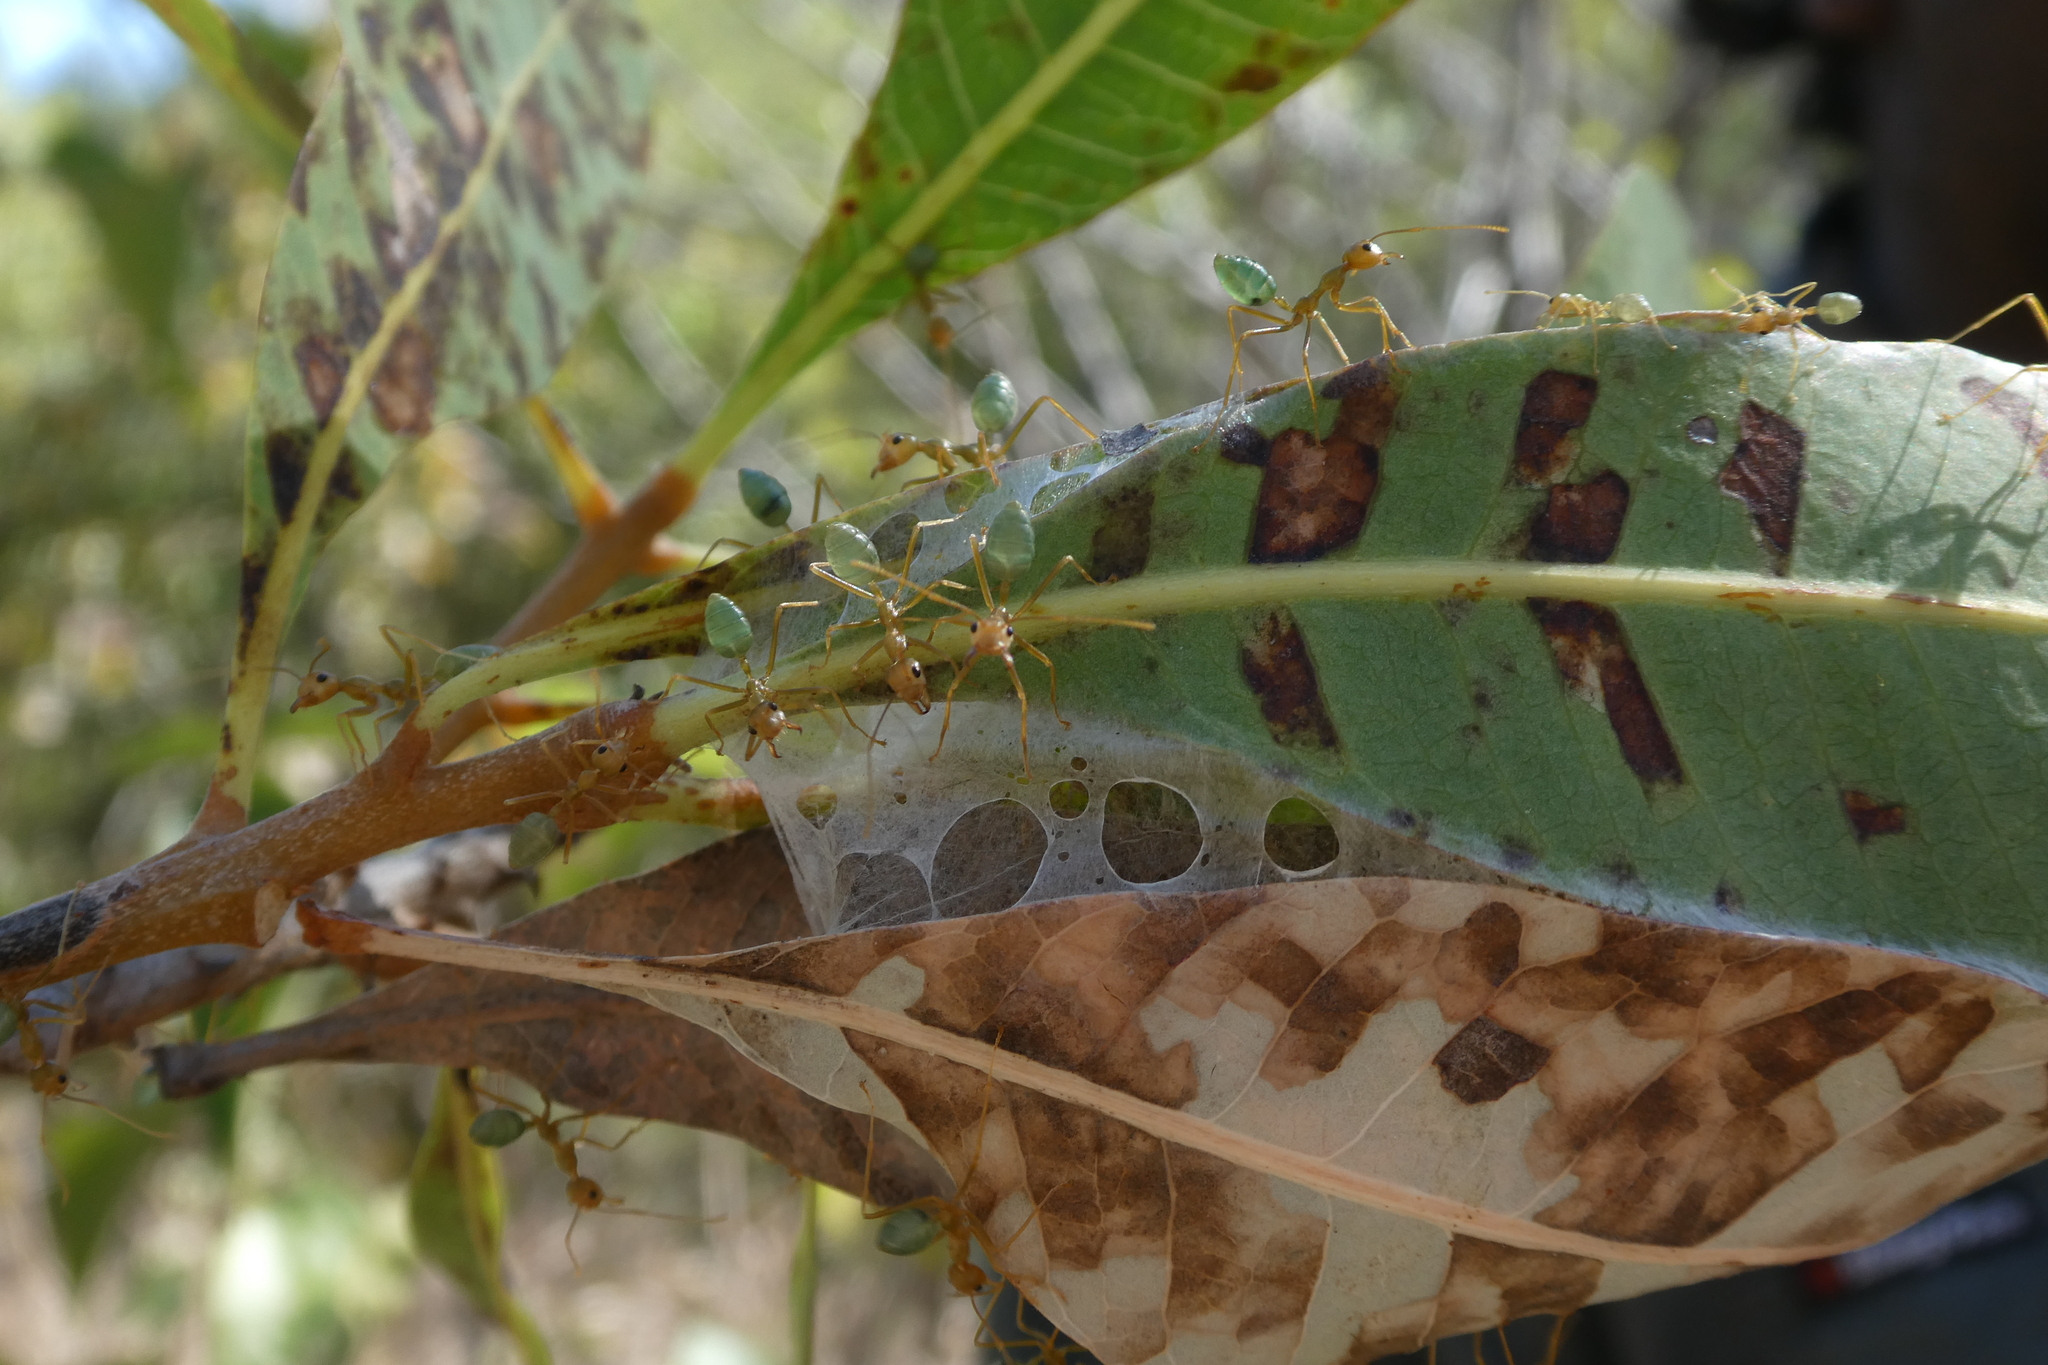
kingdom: Animalia
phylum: Arthropoda
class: Insecta
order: Hymenoptera
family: Formicidae
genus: Oecophylla
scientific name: Oecophylla smaragdina
